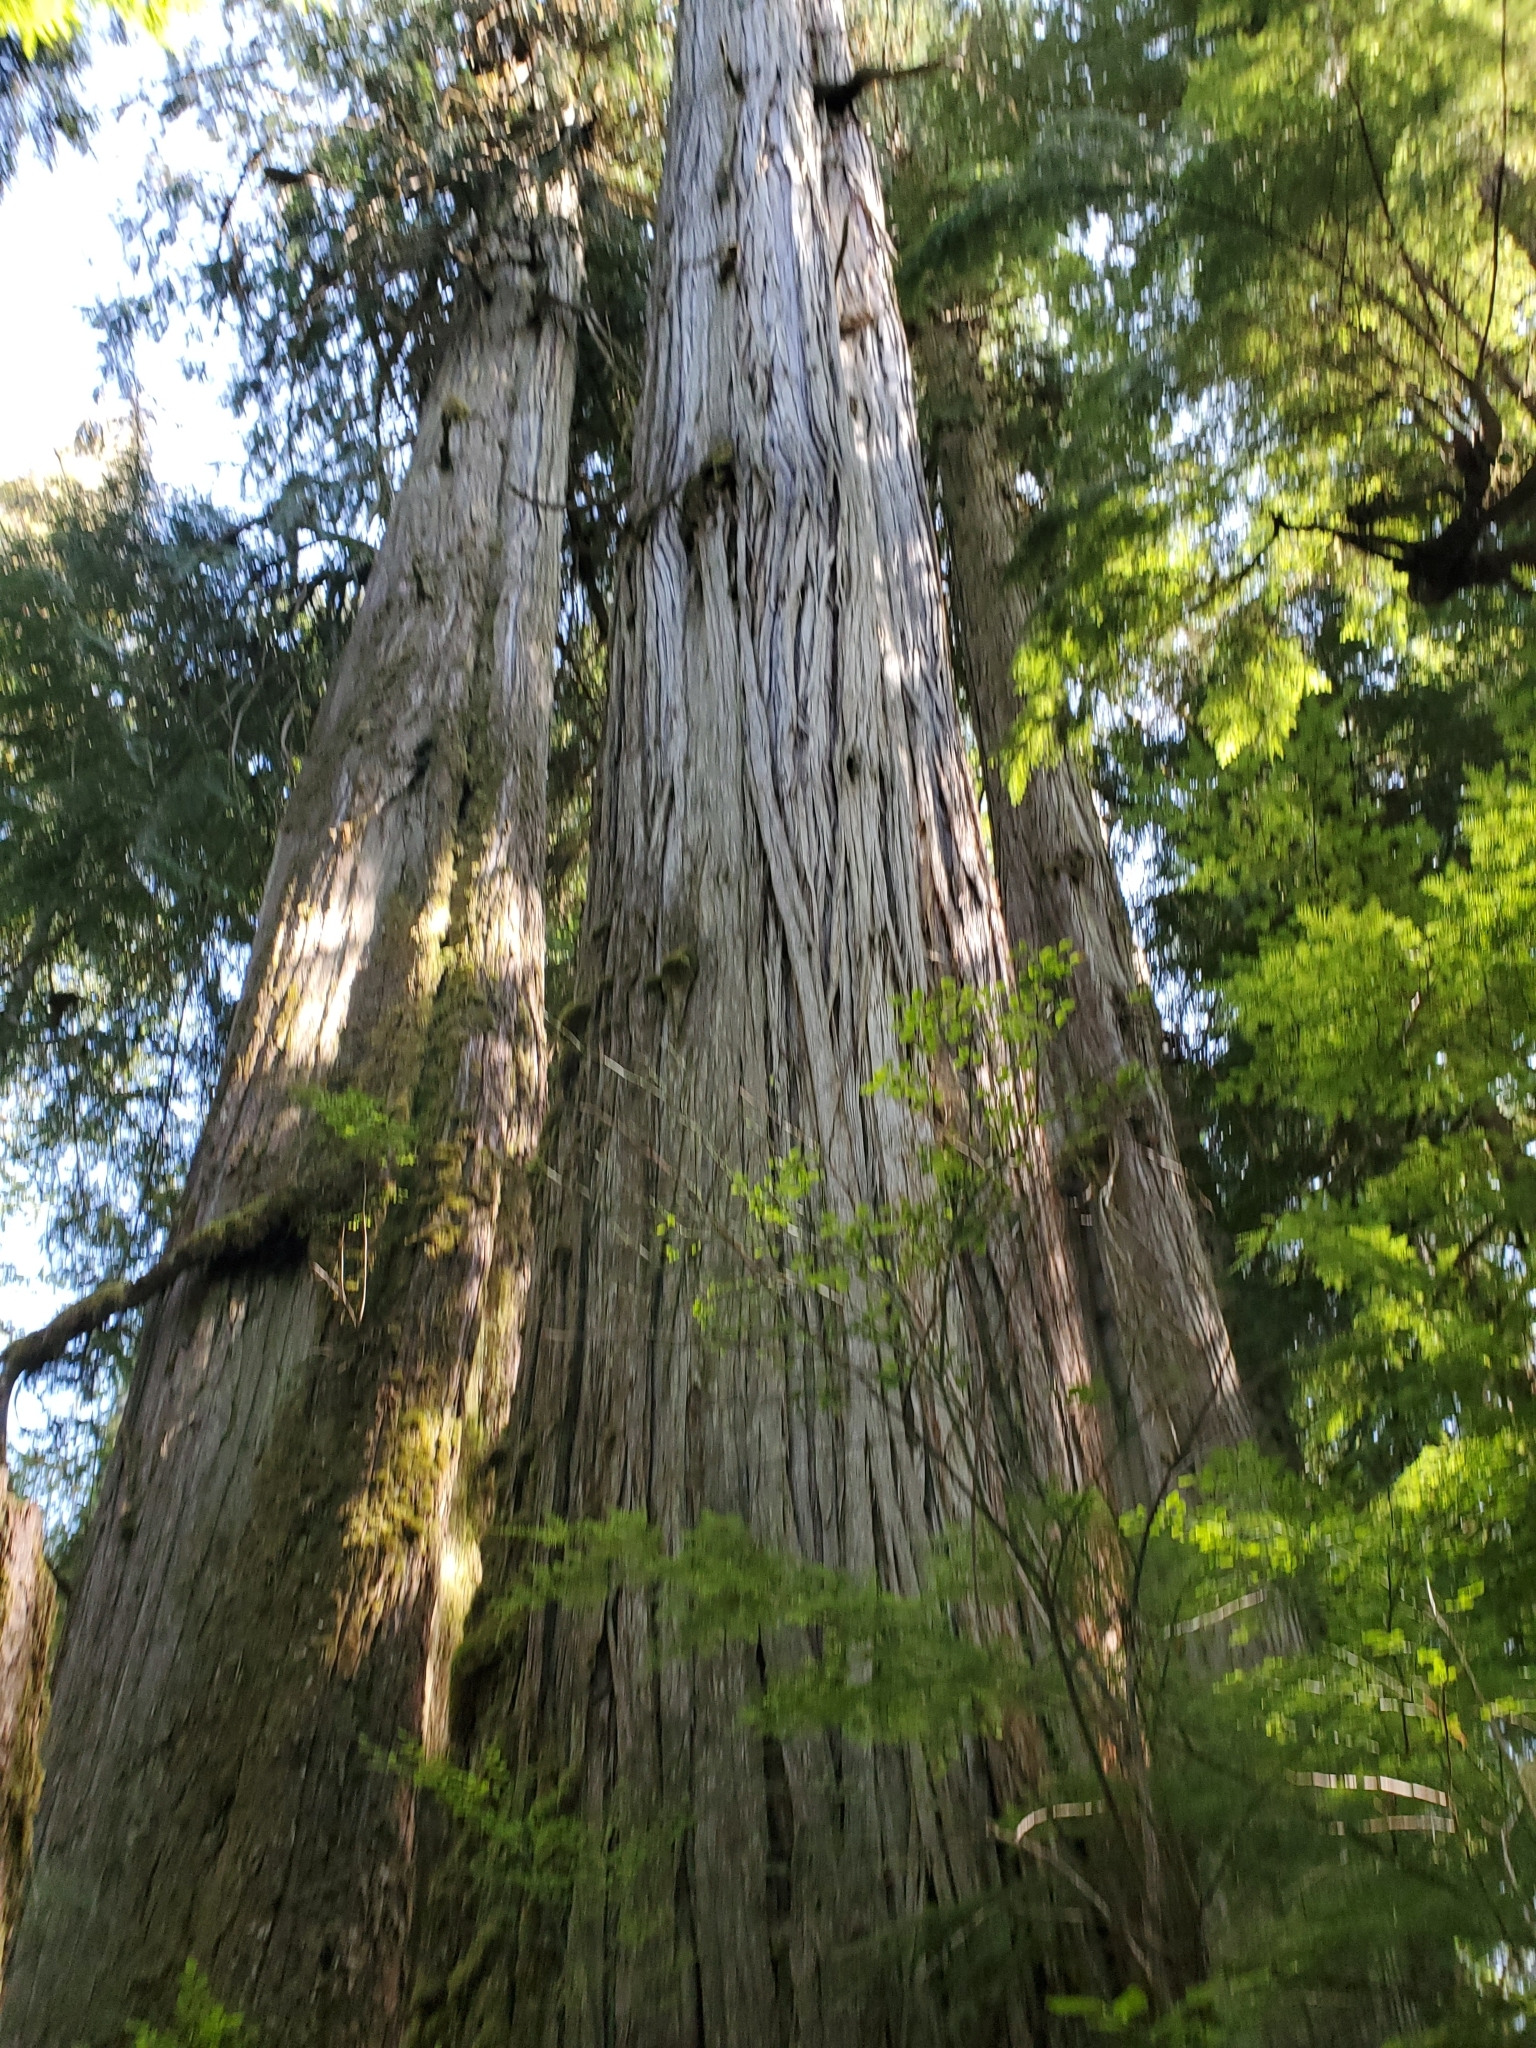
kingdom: Plantae
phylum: Tracheophyta
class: Pinopsida
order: Pinales
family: Cupressaceae
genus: Thuja
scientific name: Thuja plicata
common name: Western red-cedar
